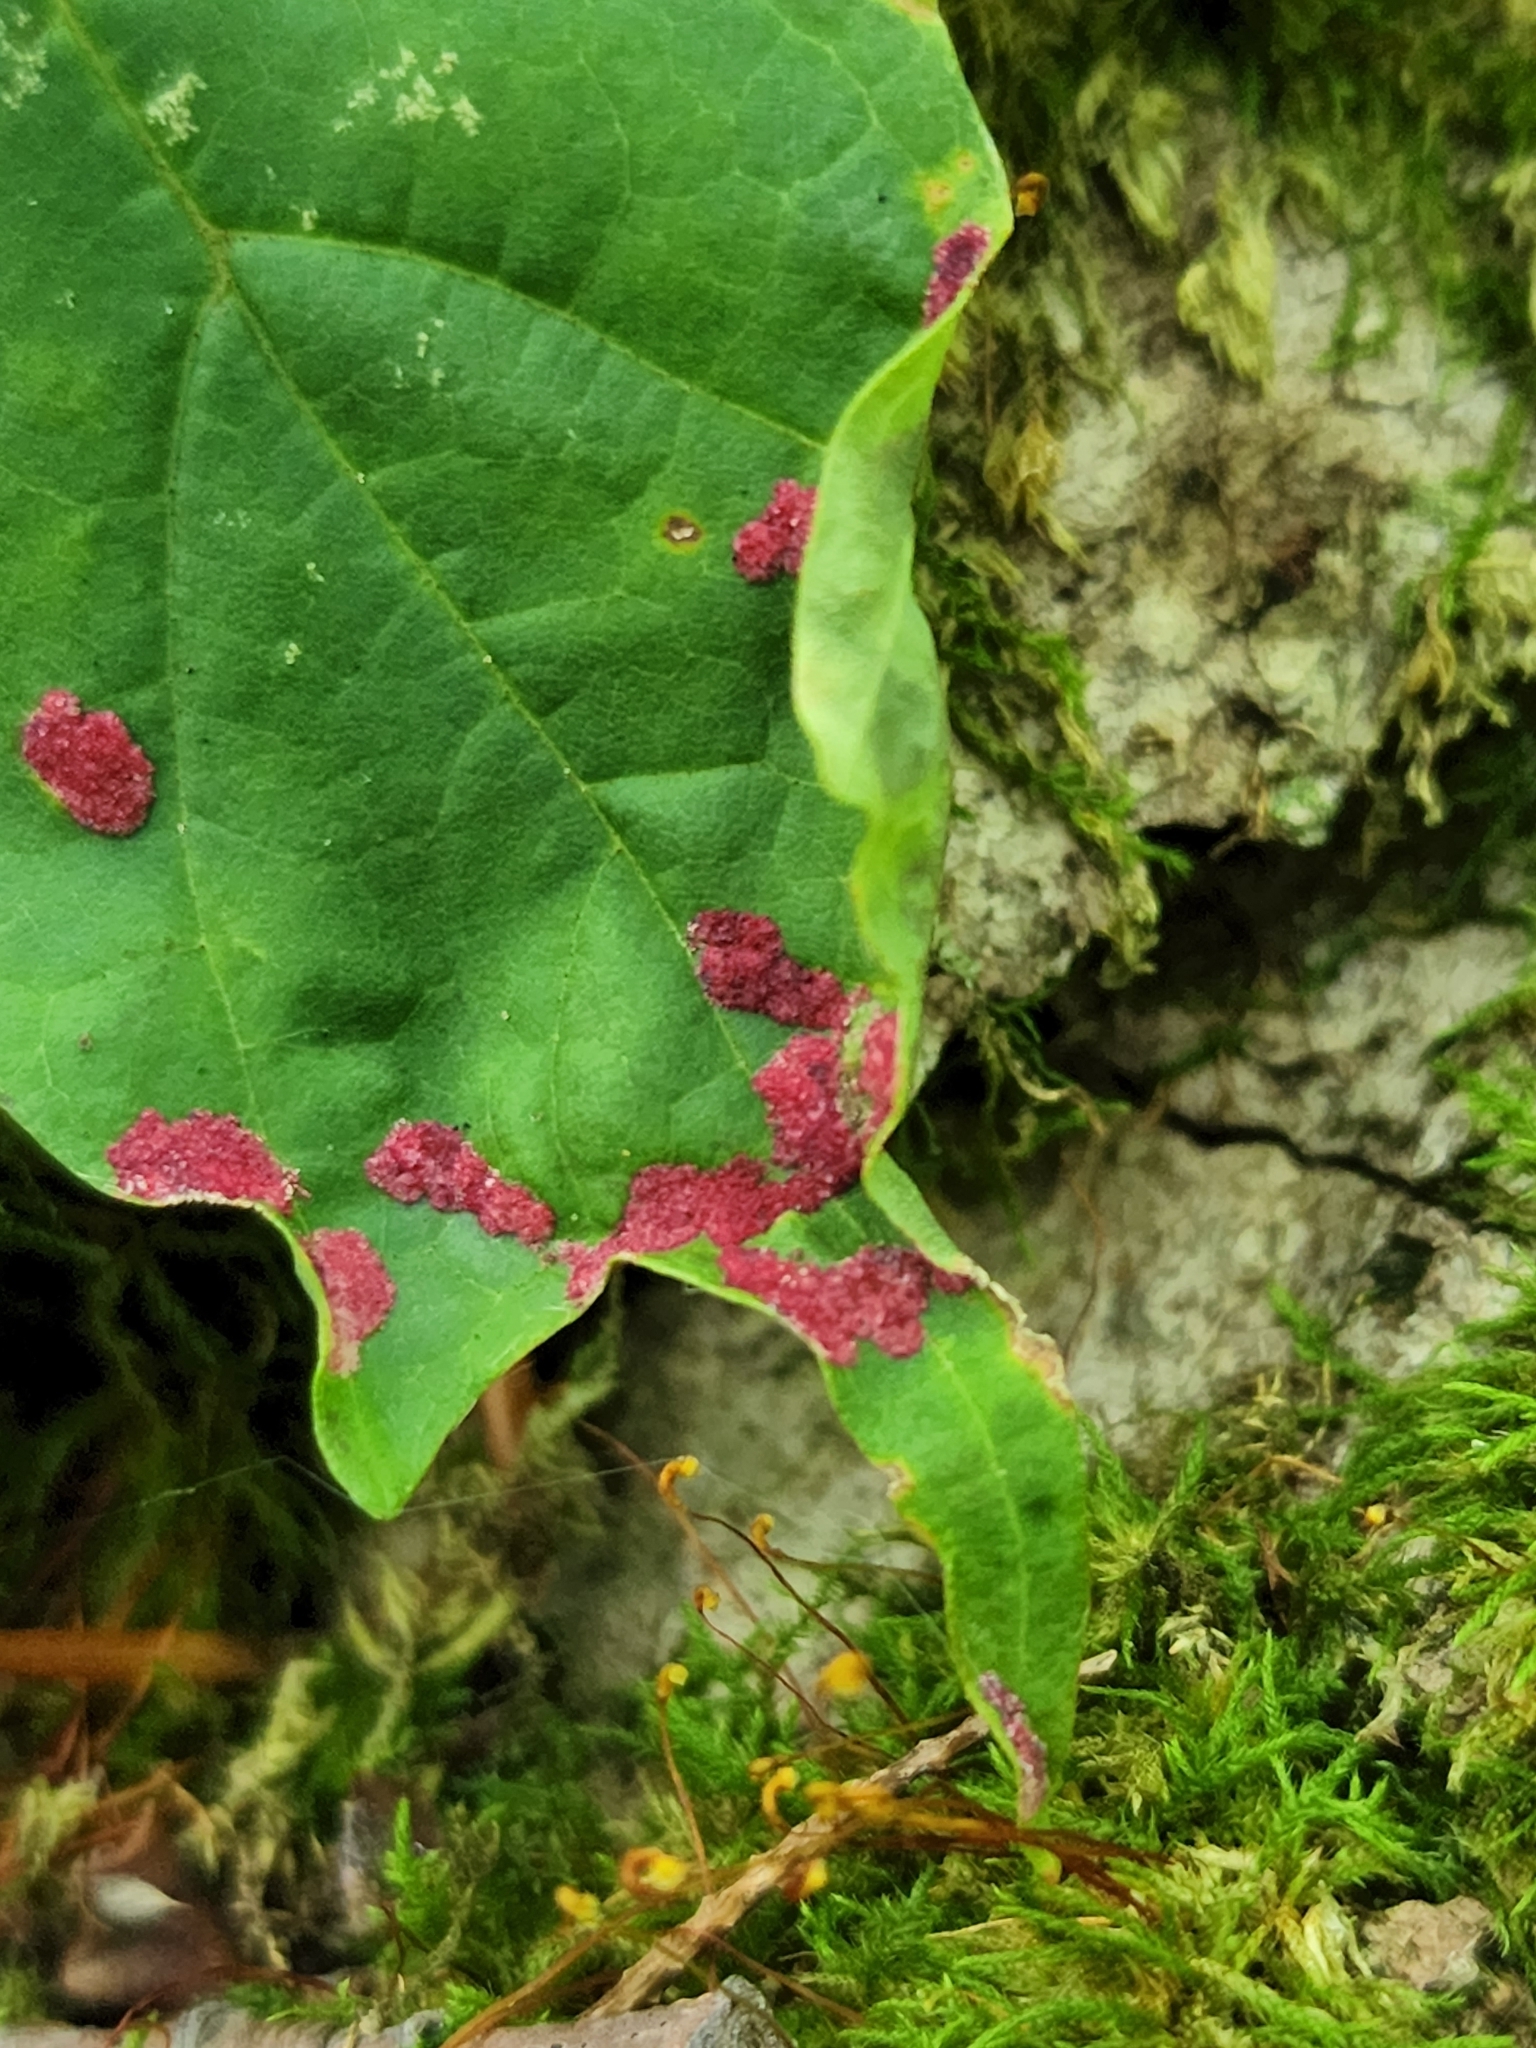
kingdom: Animalia
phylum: Arthropoda
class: Arachnida
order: Trombidiformes
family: Eriophyidae
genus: Aceria
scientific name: Aceria
